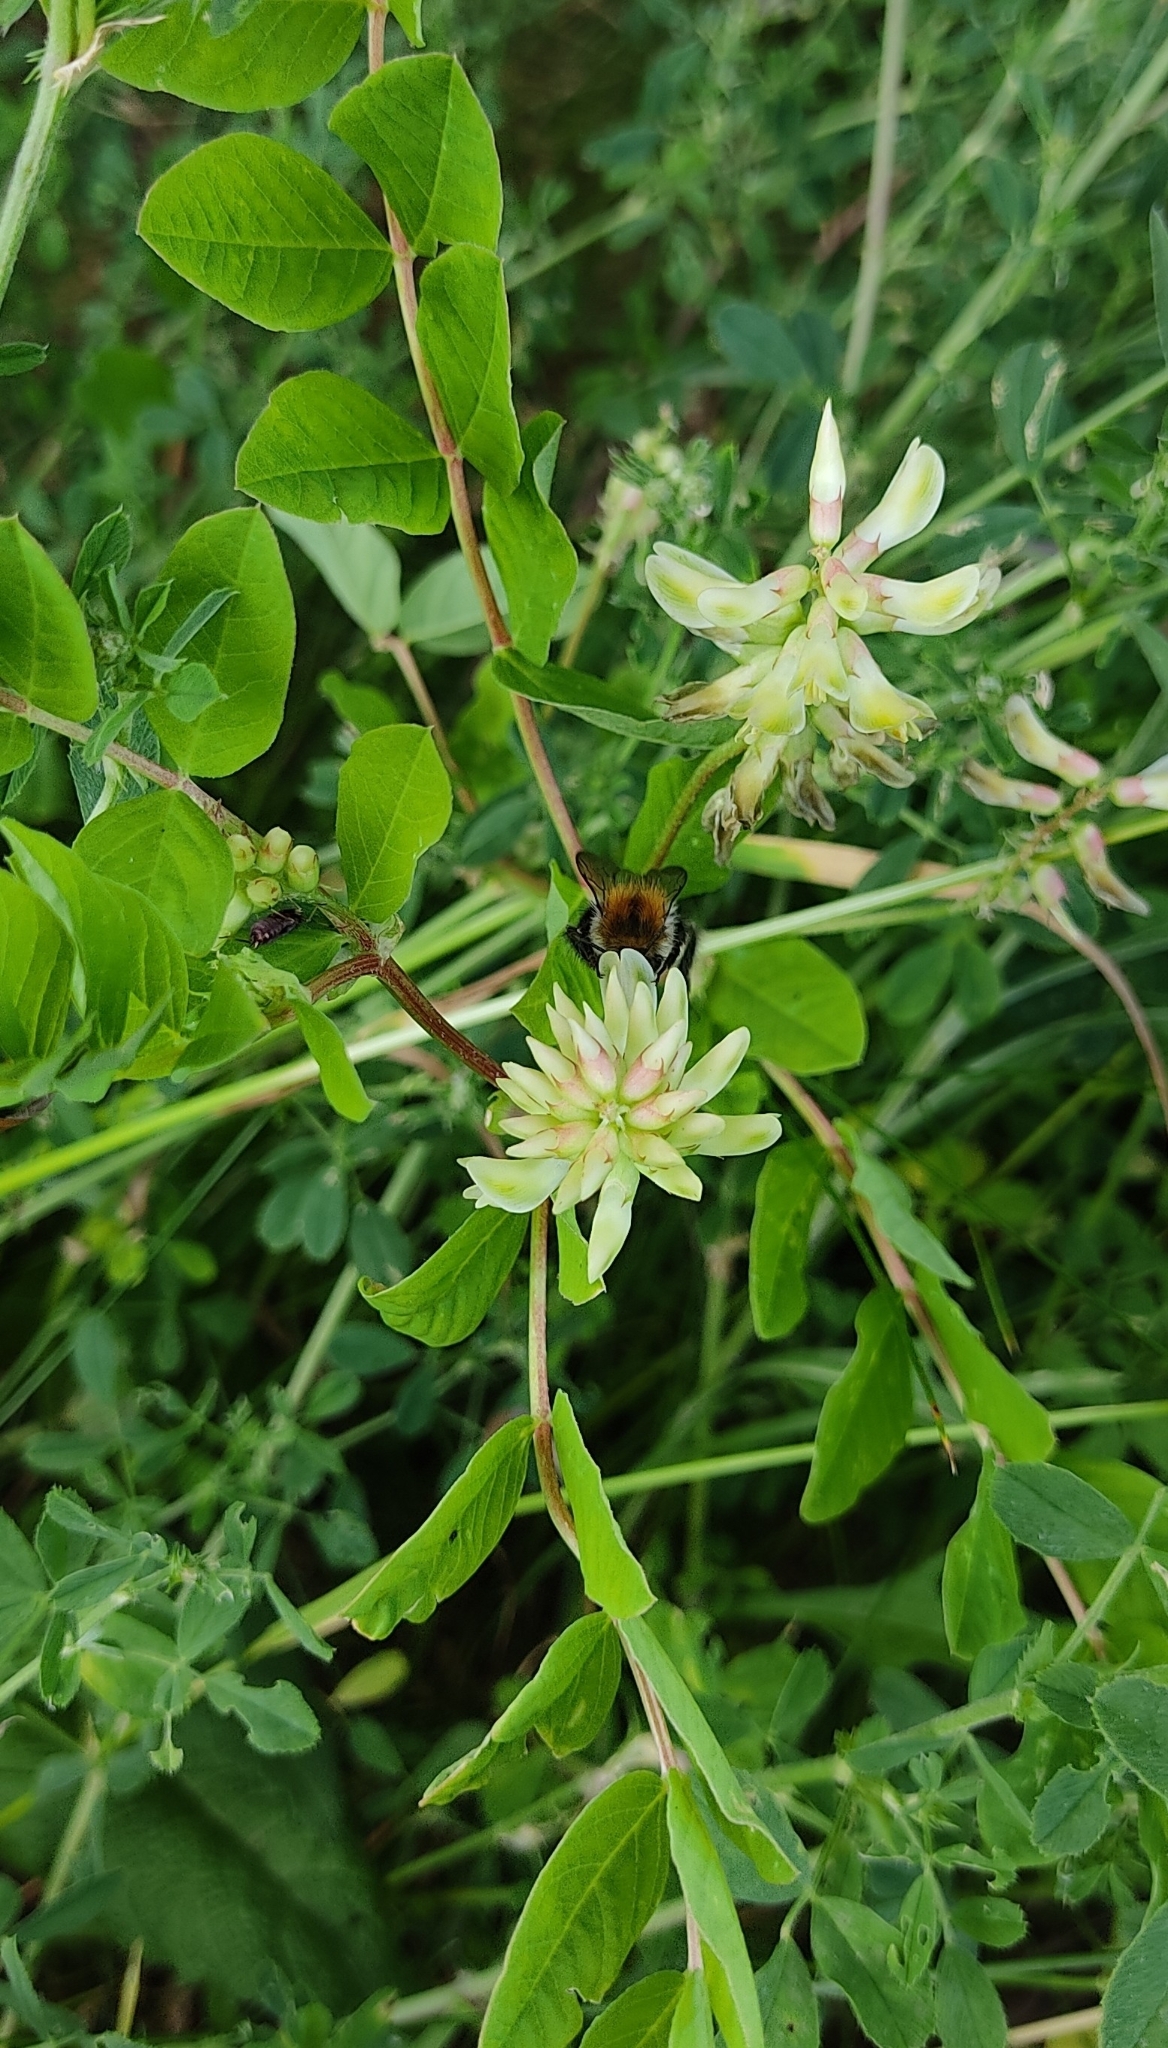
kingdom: Plantae
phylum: Tracheophyta
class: Magnoliopsida
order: Fabales
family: Fabaceae
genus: Astragalus
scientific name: Astragalus glycyphyllos
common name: Wild liquorice
